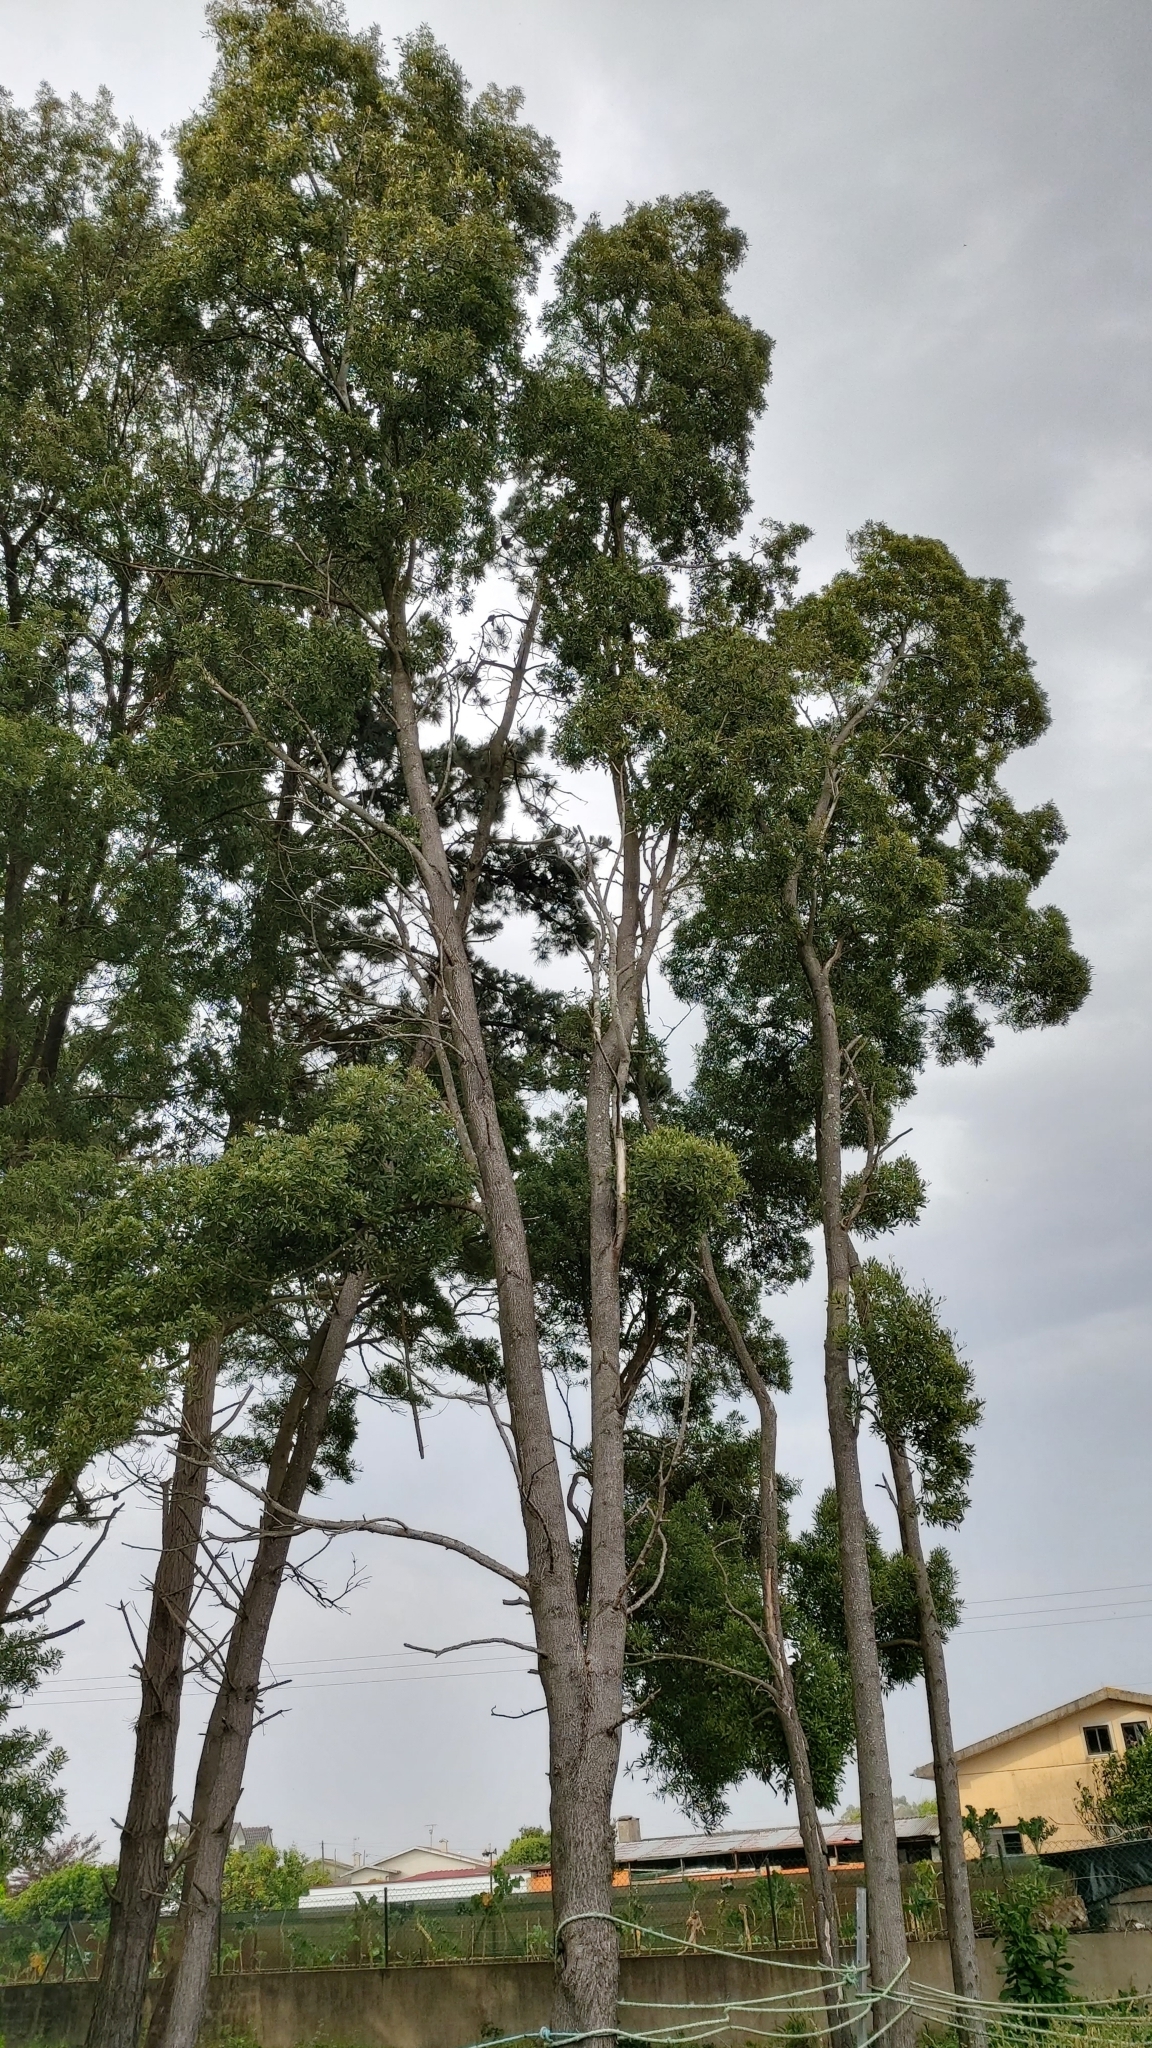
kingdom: Plantae
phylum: Tracheophyta
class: Magnoliopsida
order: Fabales
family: Fabaceae
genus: Acacia
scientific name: Acacia melanoxylon
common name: Blackwood
